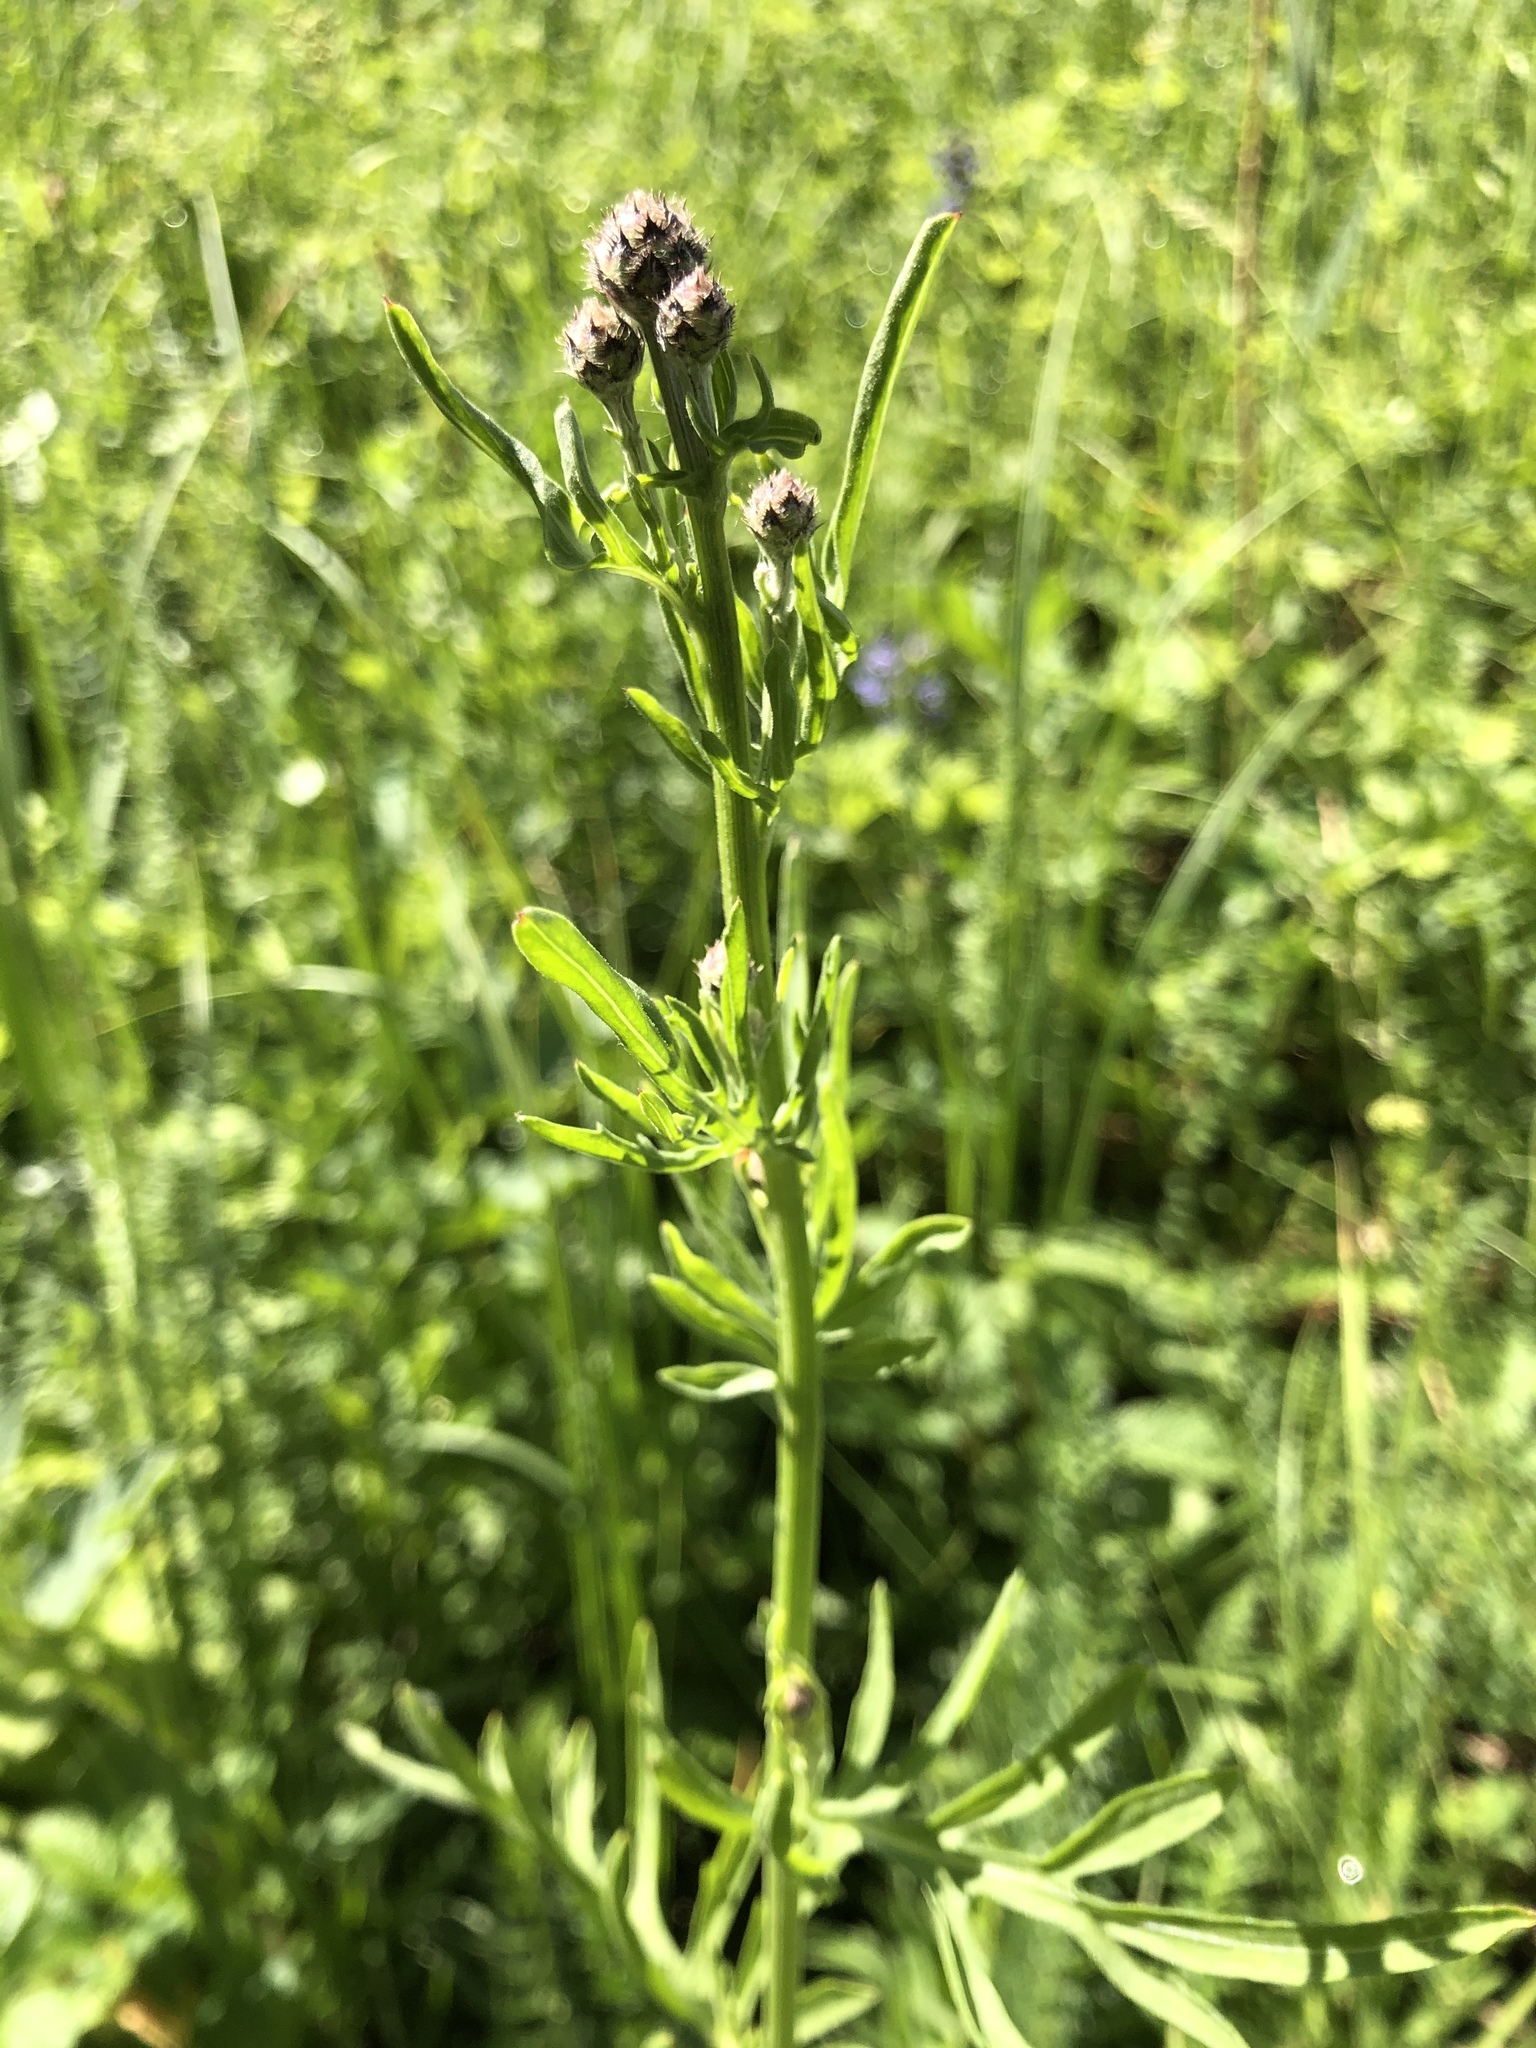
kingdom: Plantae
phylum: Tracheophyta
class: Magnoliopsida
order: Asterales
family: Asteraceae
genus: Centaurea
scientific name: Centaurea scabiosa
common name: Greater knapweed
